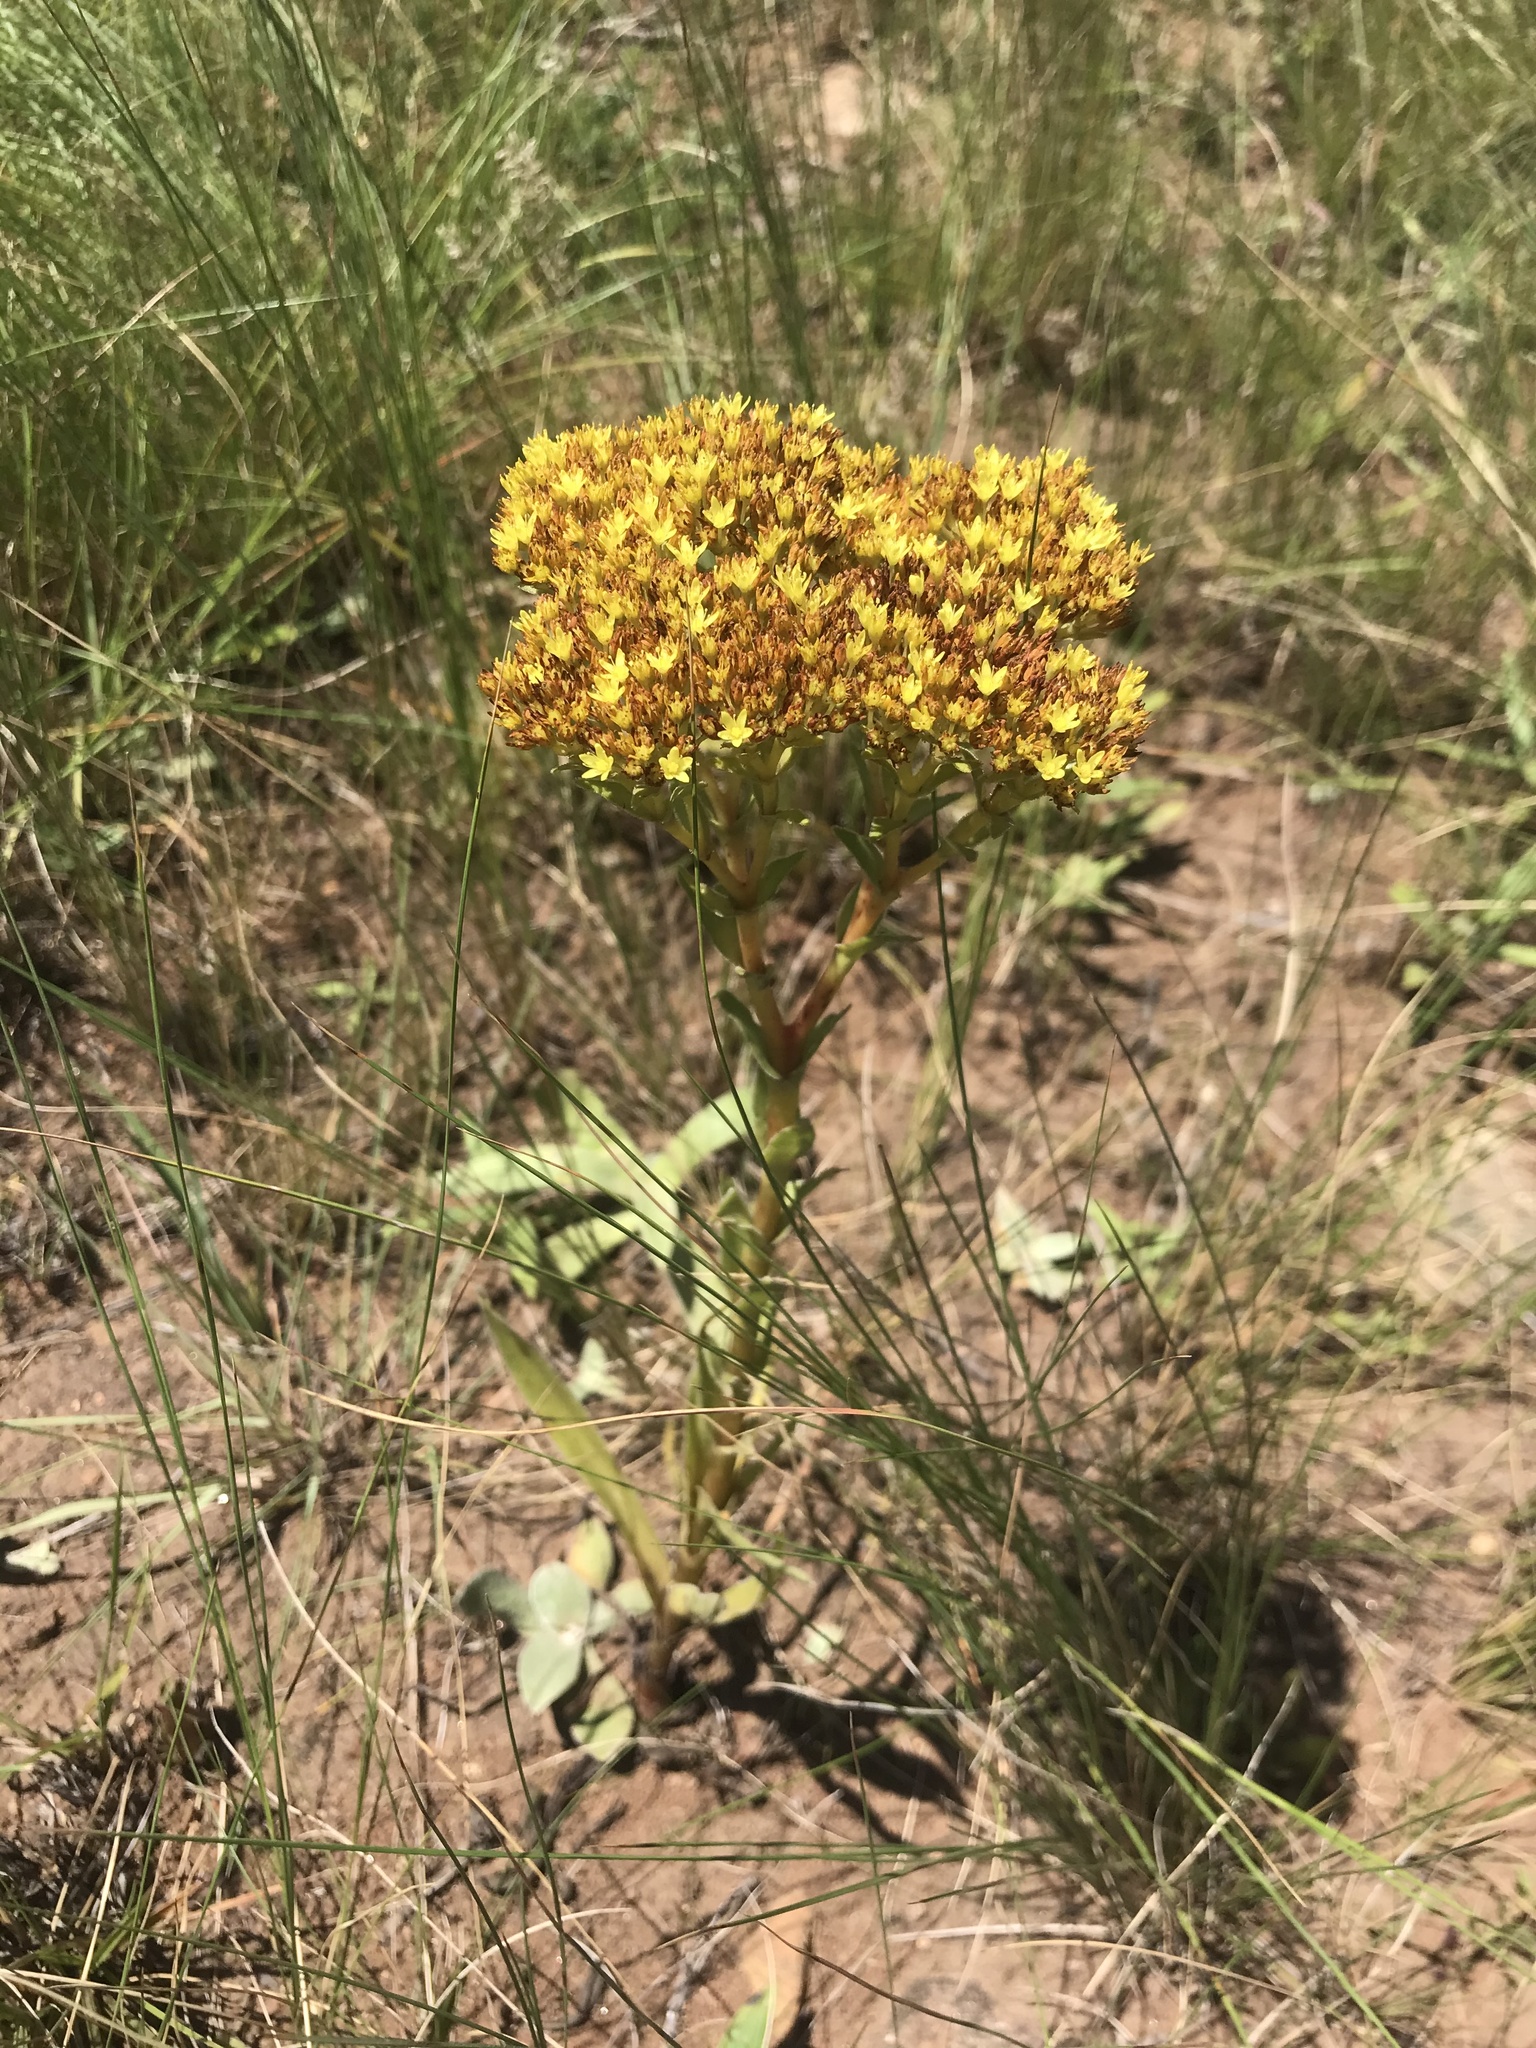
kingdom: Plantae
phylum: Tracheophyta
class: Magnoliopsida
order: Saxifragales
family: Crassulaceae
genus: Crassula
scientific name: Crassula vaginata
